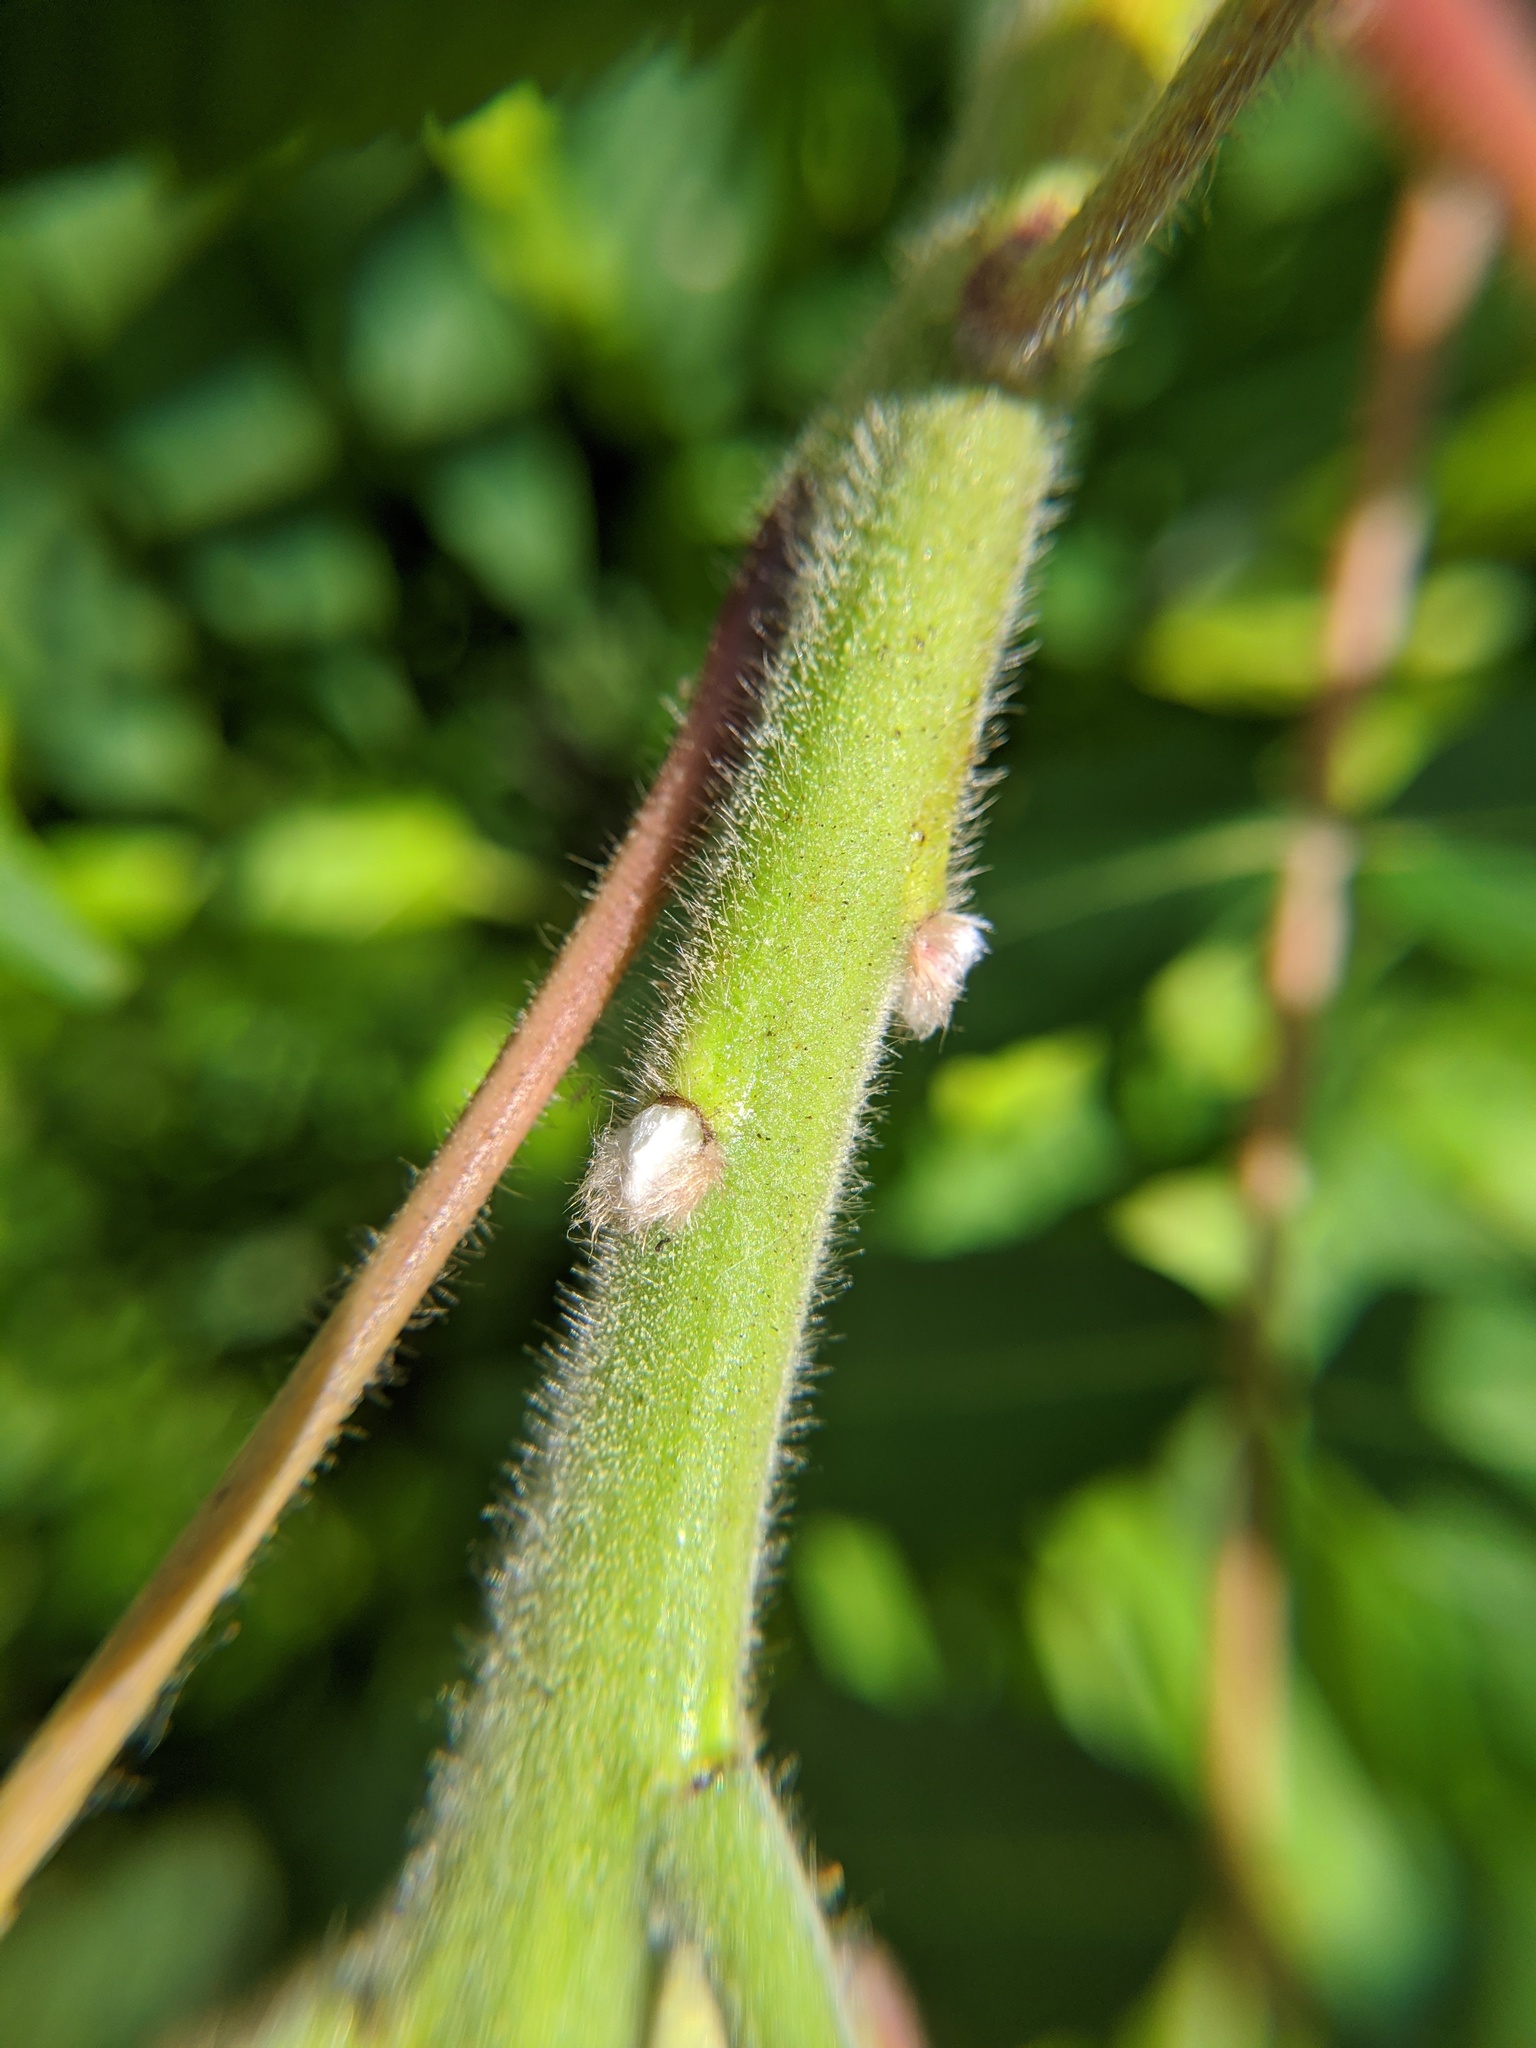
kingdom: Plantae
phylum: Tracheophyta
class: Magnoliopsida
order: Sapindales
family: Anacardiaceae
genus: Rhus
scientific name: Rhus typhina
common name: Staghorn sumac
